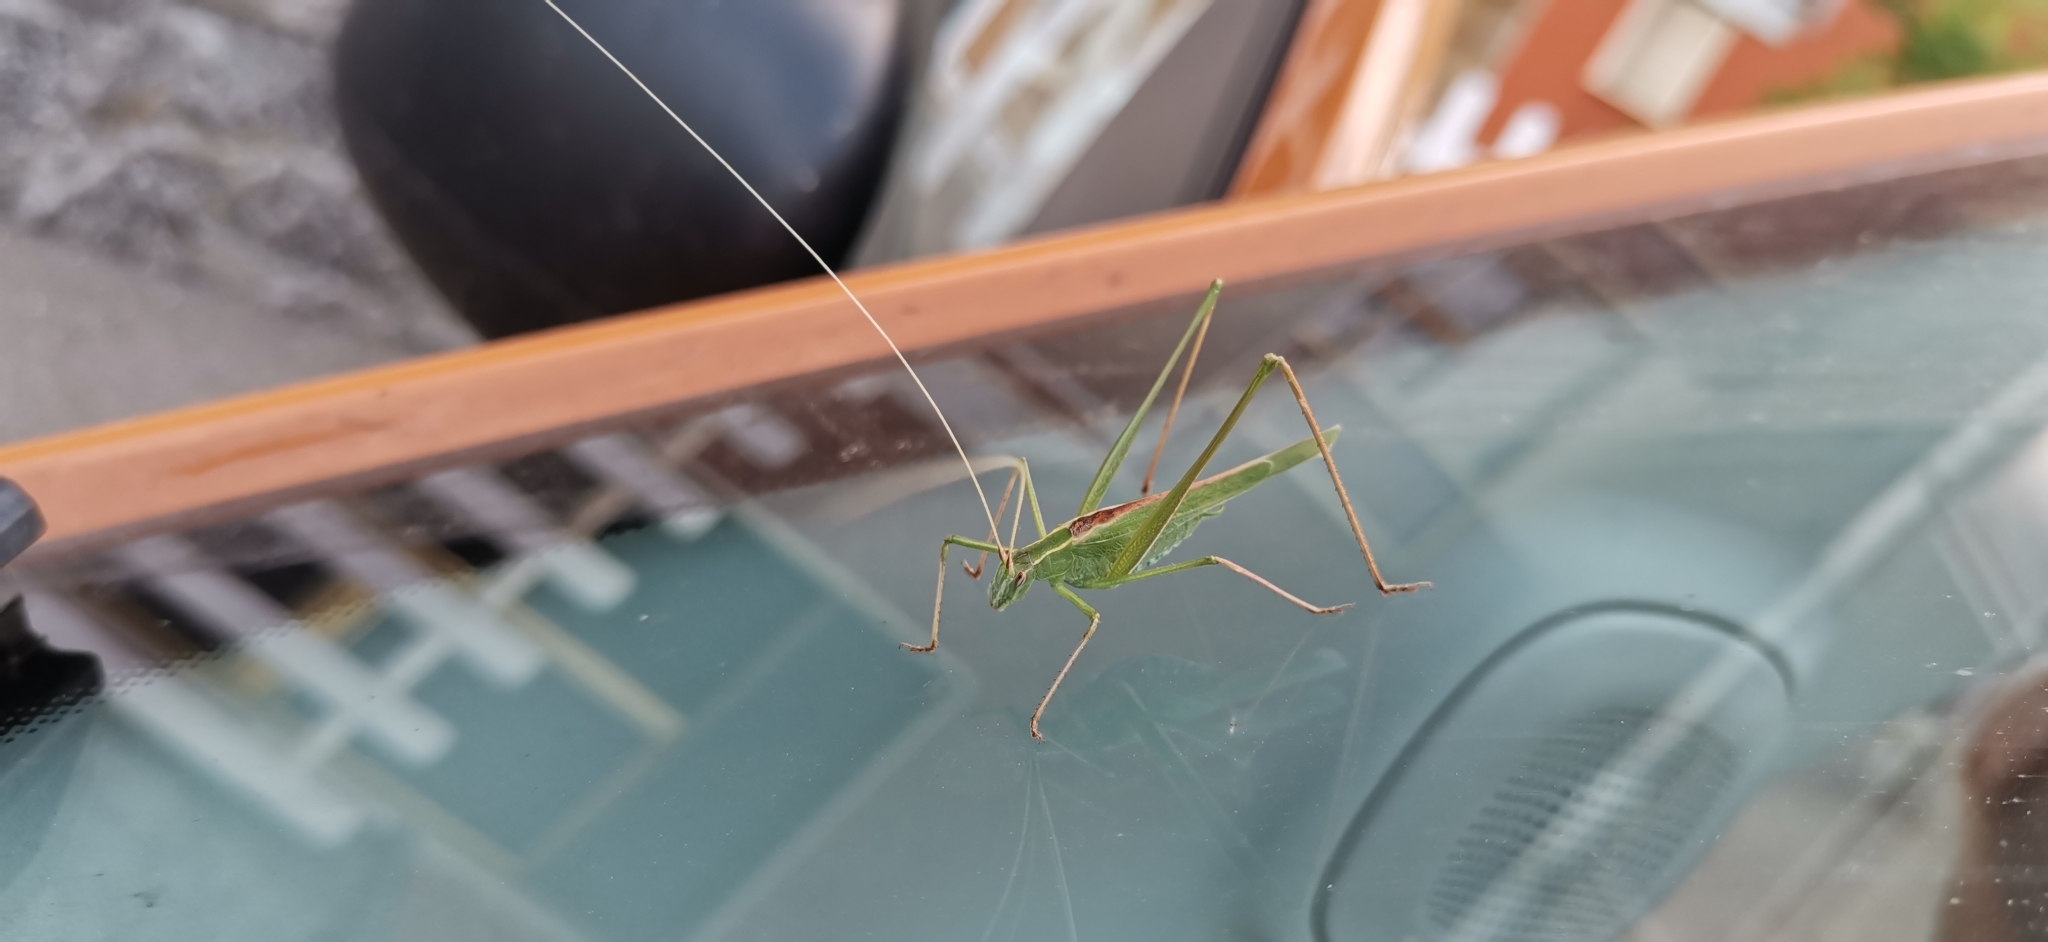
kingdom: Animalia
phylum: Arthropoda
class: Insecta
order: Orthoptera
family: Tettigoniidae
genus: Tylopsis
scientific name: Tylopsis lilifolia
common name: Lily bush-cricket
